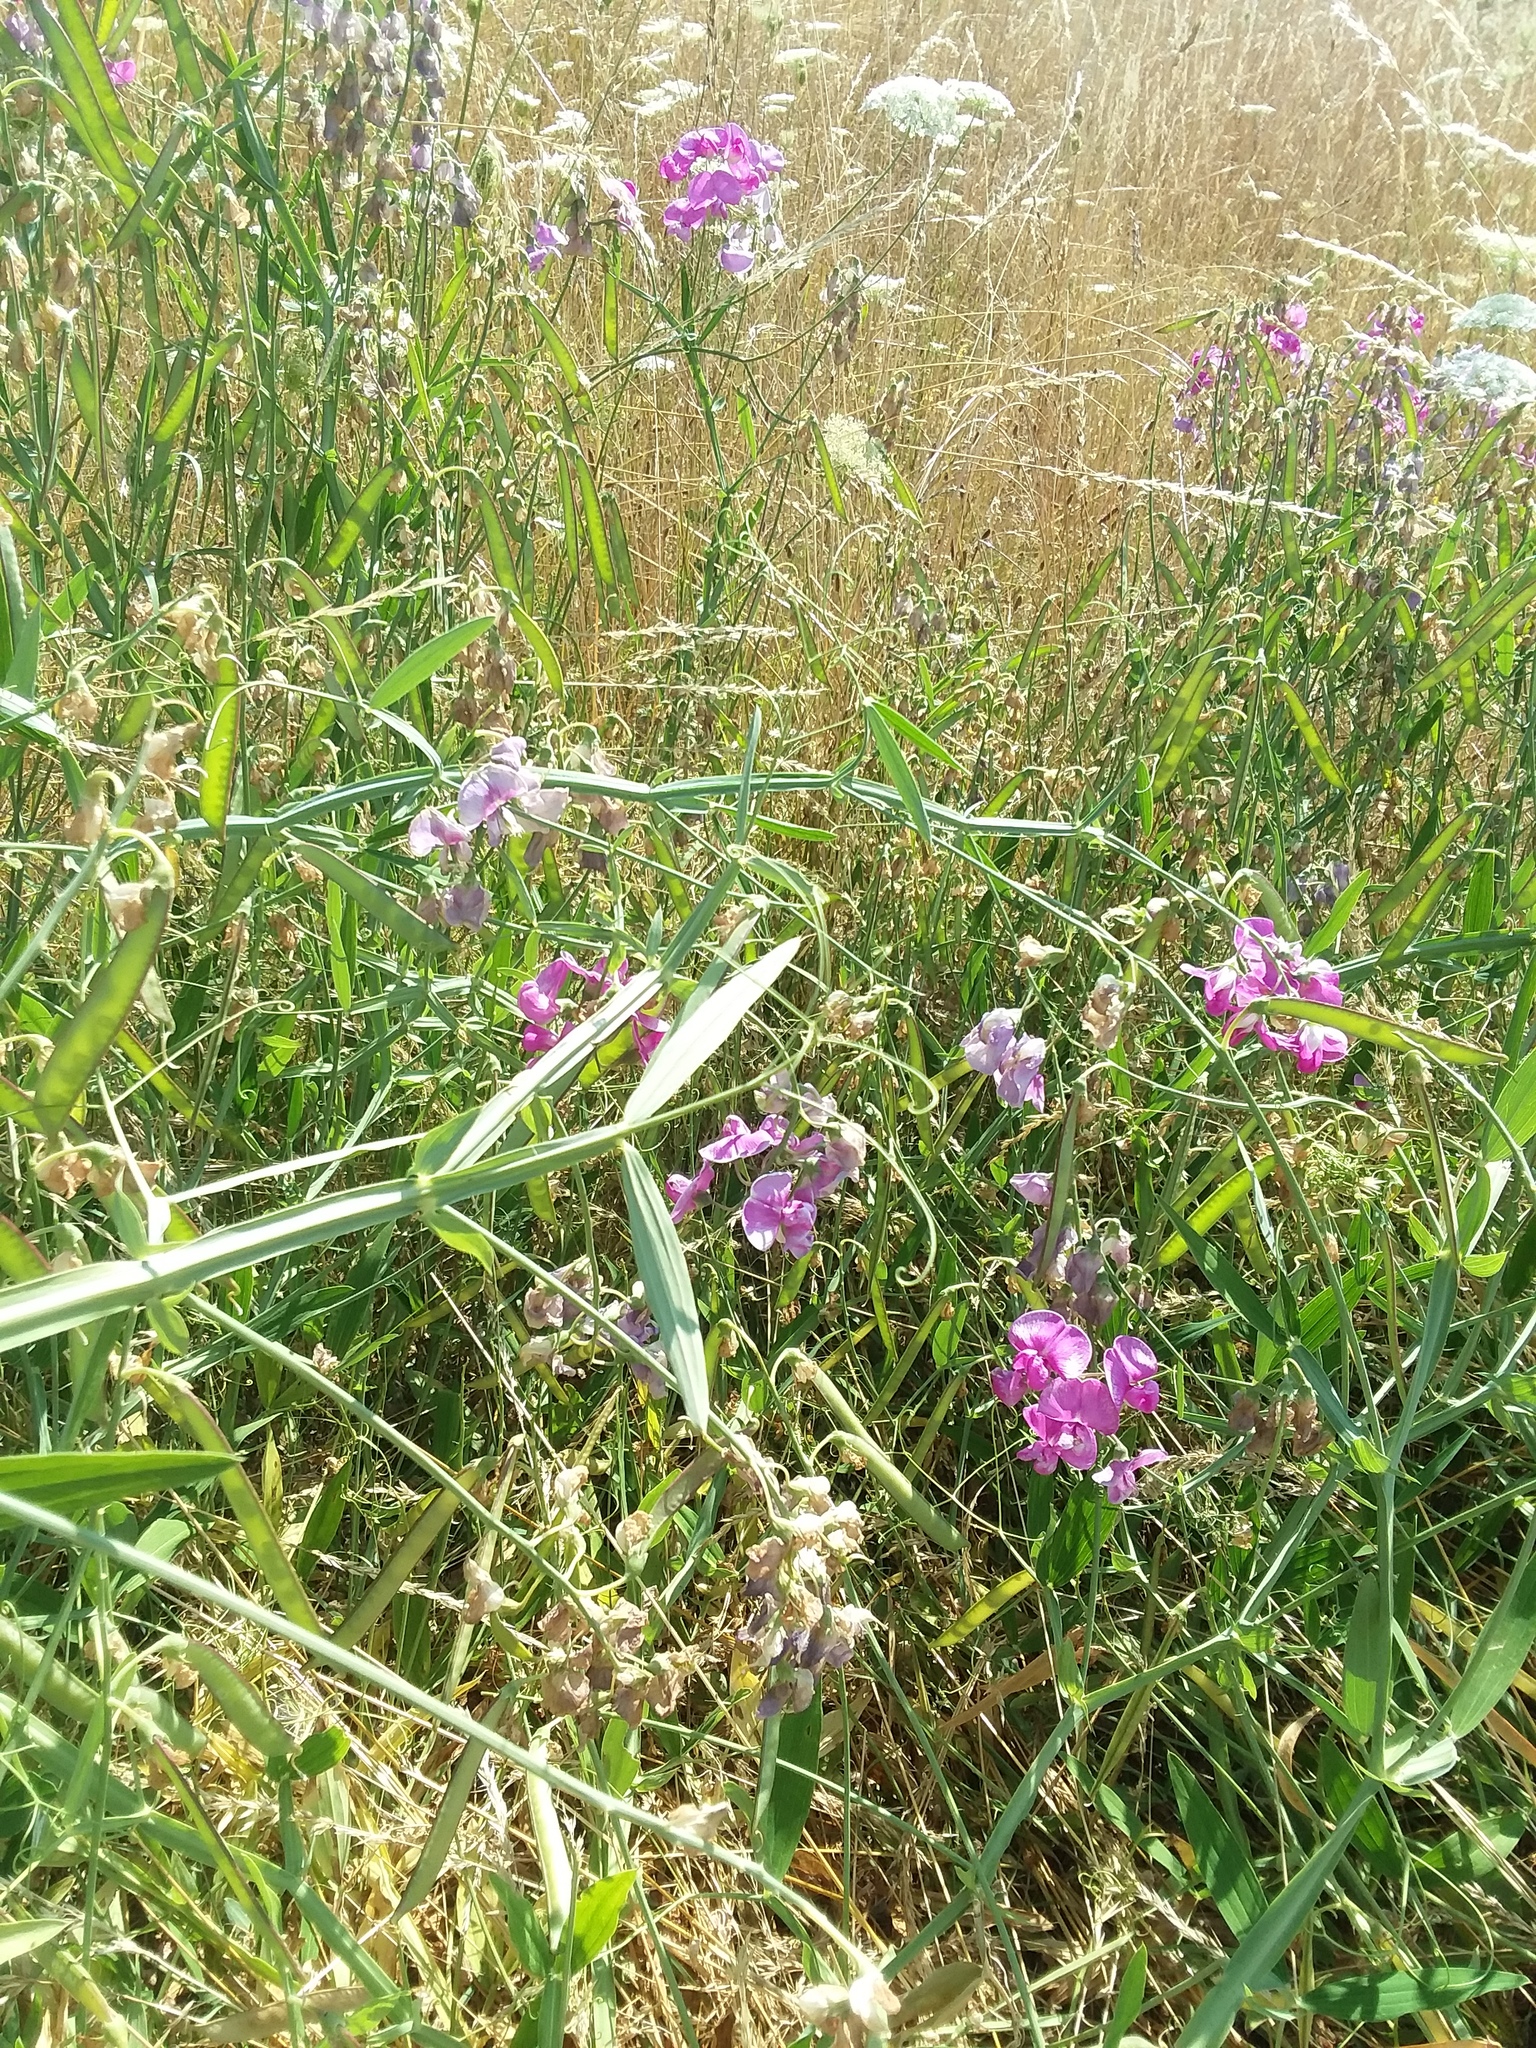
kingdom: Plantae
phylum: Tracheophyta
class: Magnoliopsida
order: Fabales
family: Fabaceae
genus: Lathyrus
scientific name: Lathyrus latifolius
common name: Perennial pea
